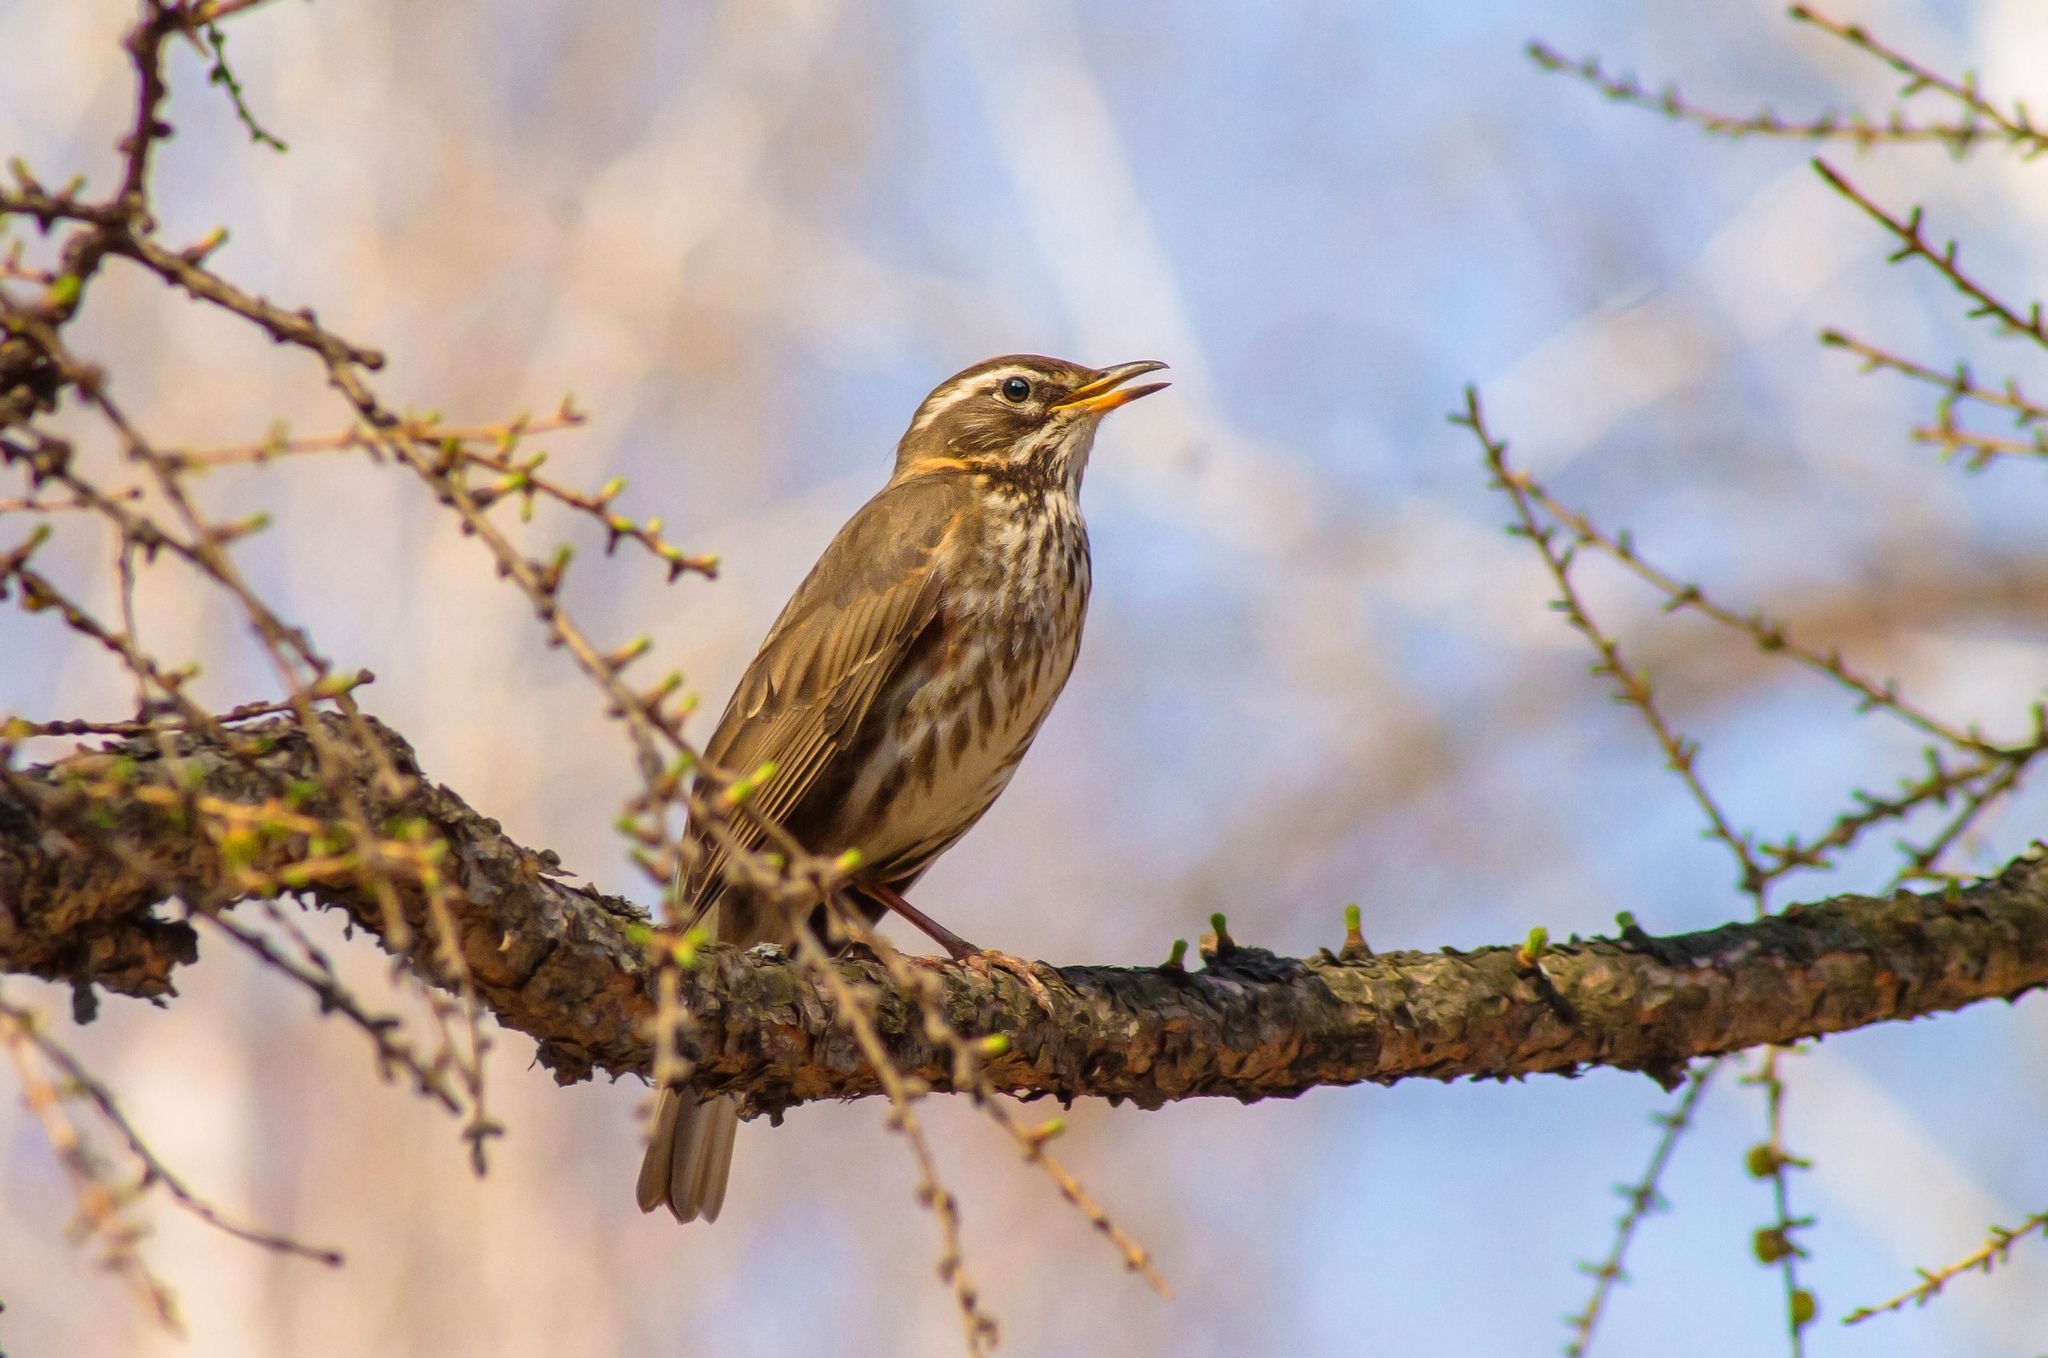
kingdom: Animalia
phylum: Chordata
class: Aves
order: Passeriformes
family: Turdidae
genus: Turdus
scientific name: Turdus iliacus
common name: Redwing
